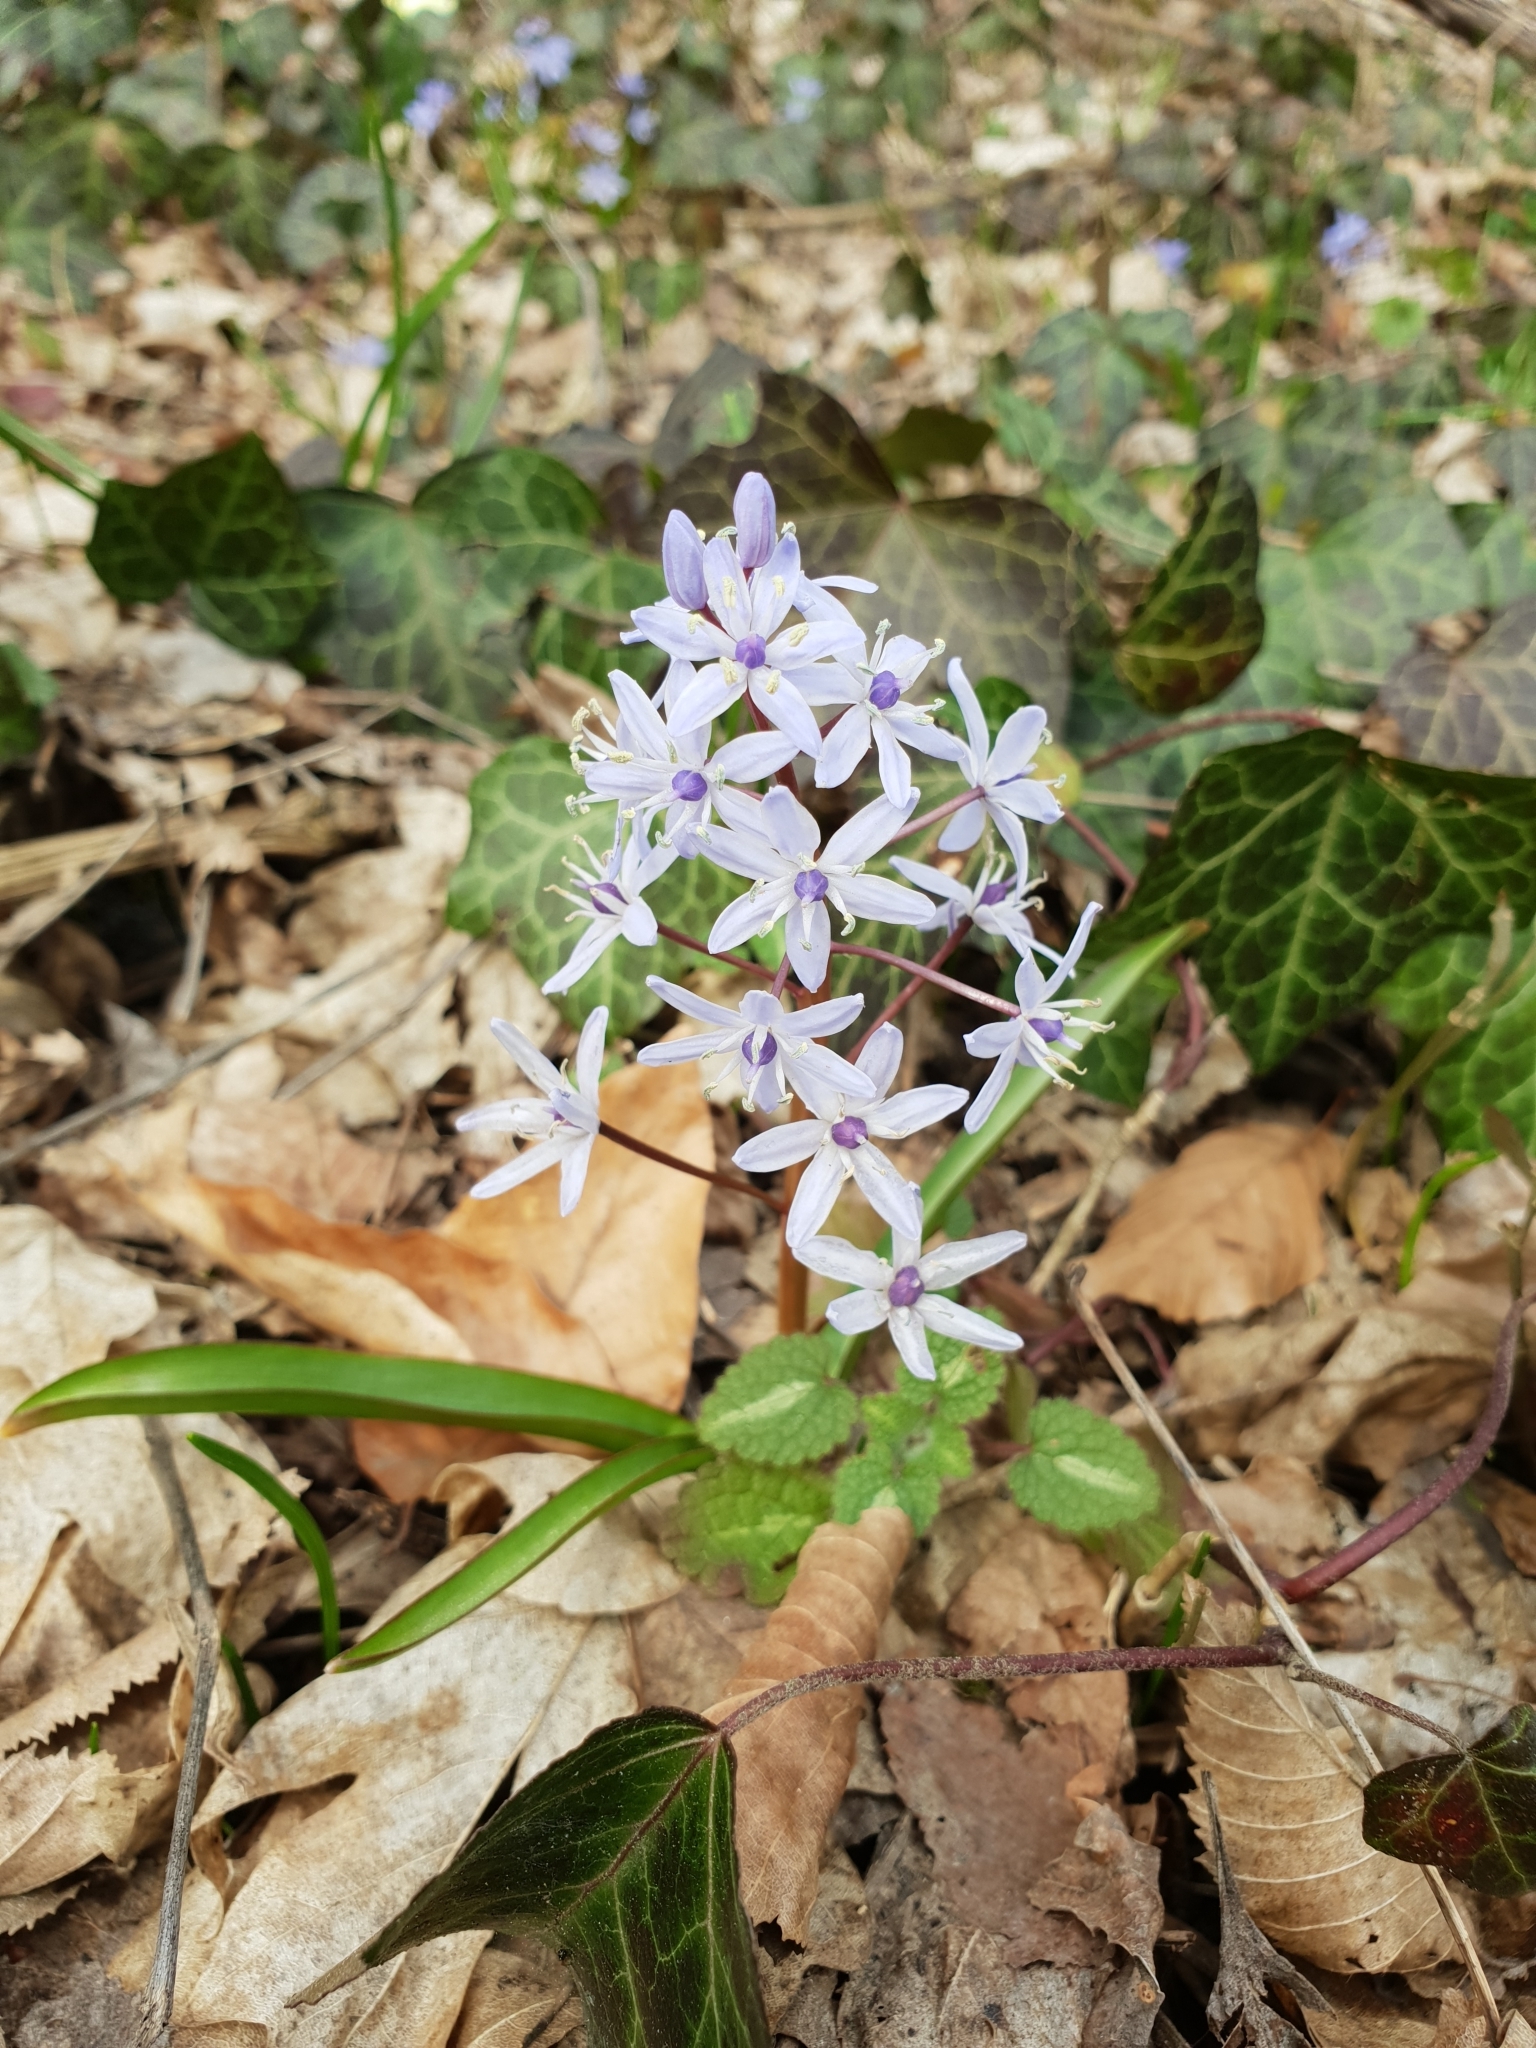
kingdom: Plantae
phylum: Tracheophyta
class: Liliopsida
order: Asparagales
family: Asparagaceae
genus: Scilla
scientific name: Scilla bifolia
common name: Alpine squill
